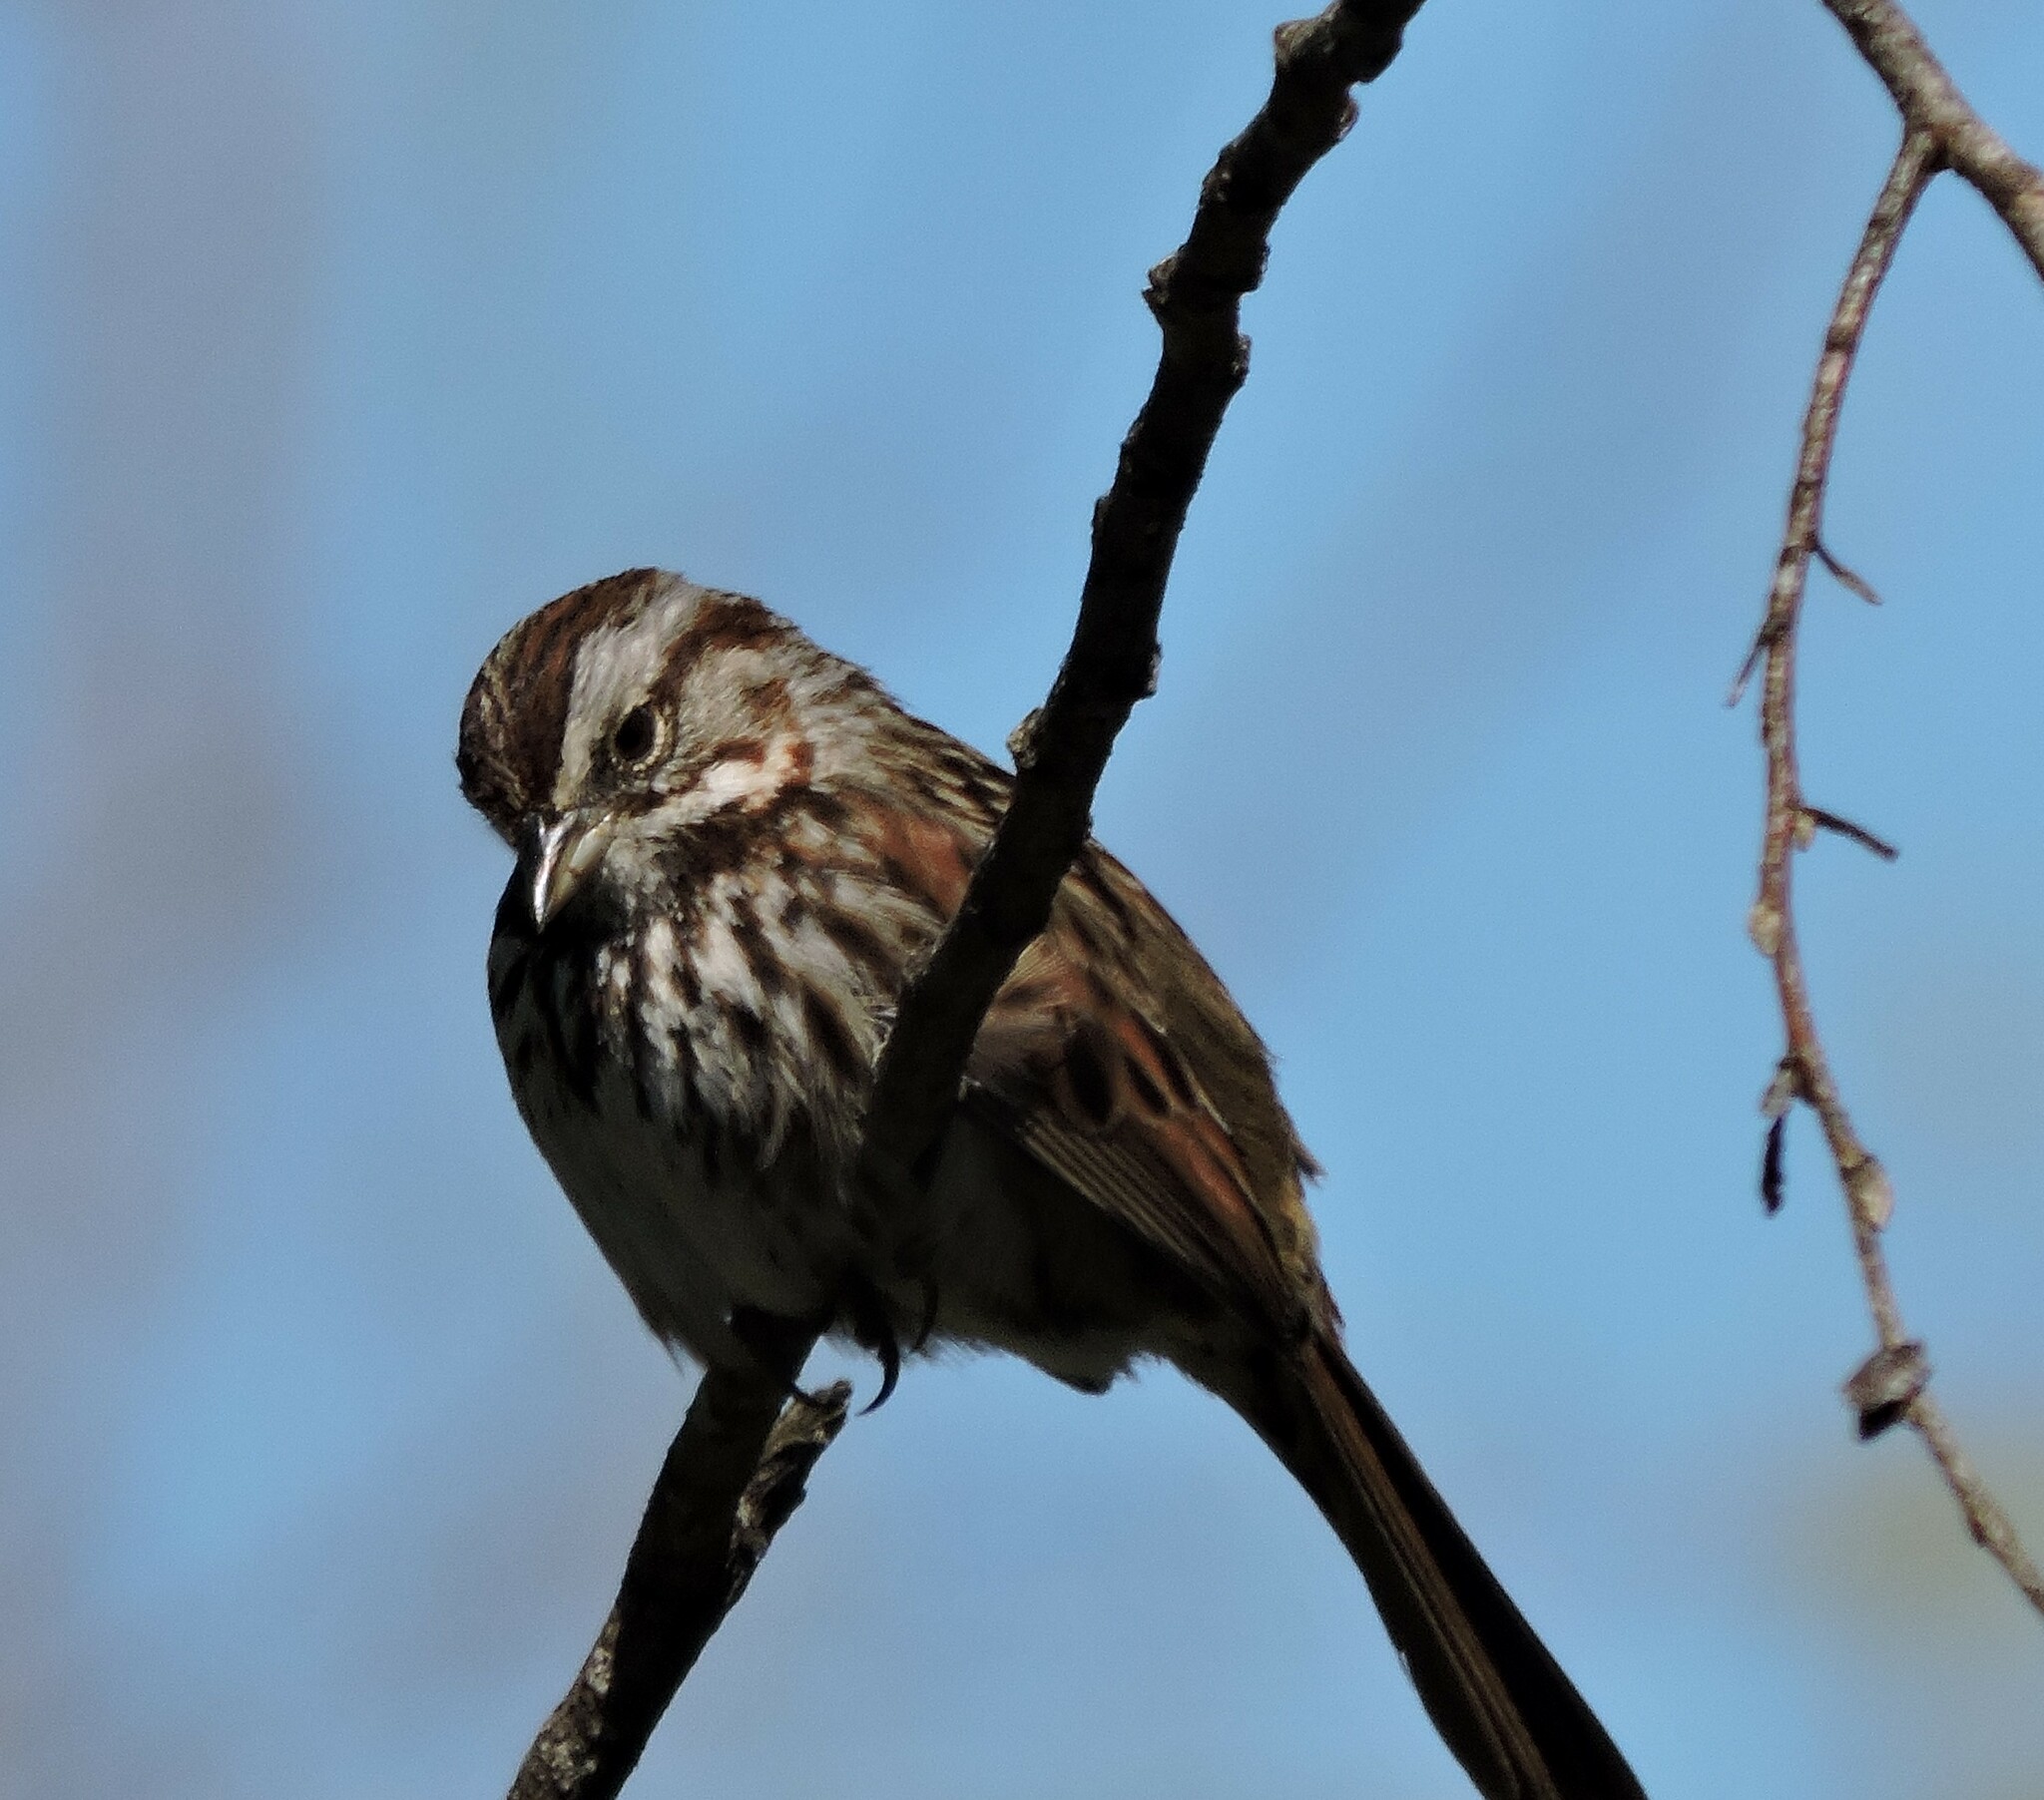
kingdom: Animalia
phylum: Chordata
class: Aves
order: Passeriformes
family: Passerellidae
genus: Melospiza
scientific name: Melospiza melodia
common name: Song sparrow
